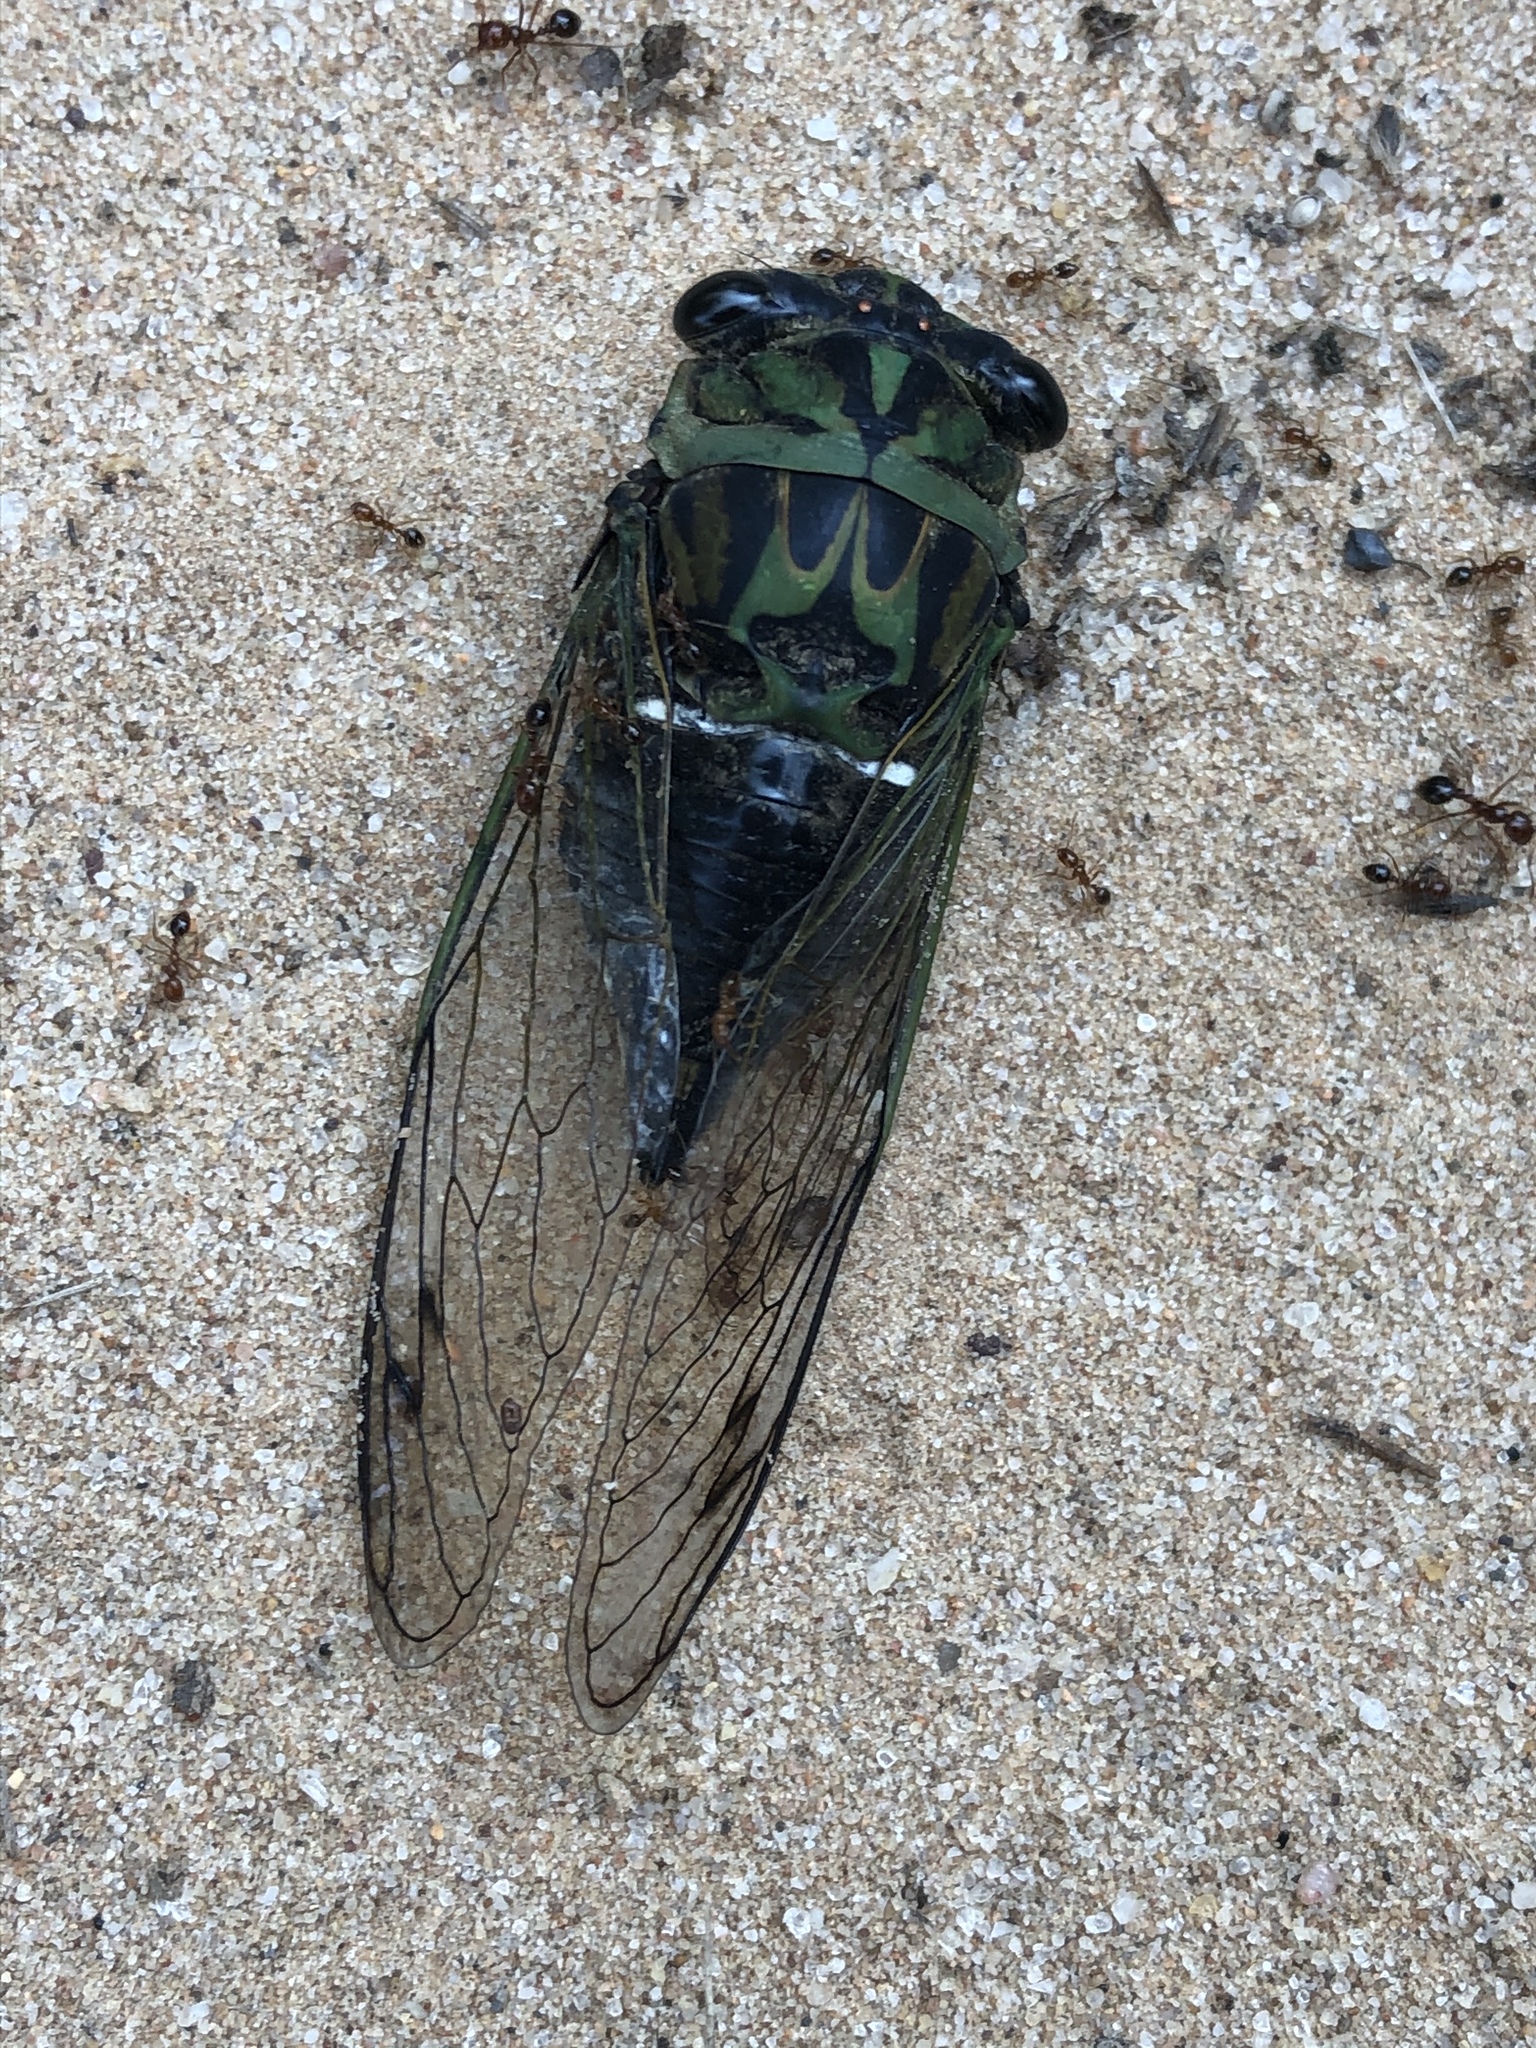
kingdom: Animalia
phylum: Arthropoda
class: Insecta
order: Hemiptera
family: Cicadidae
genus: Neotibicen
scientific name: Neotibicen robinsonianus
